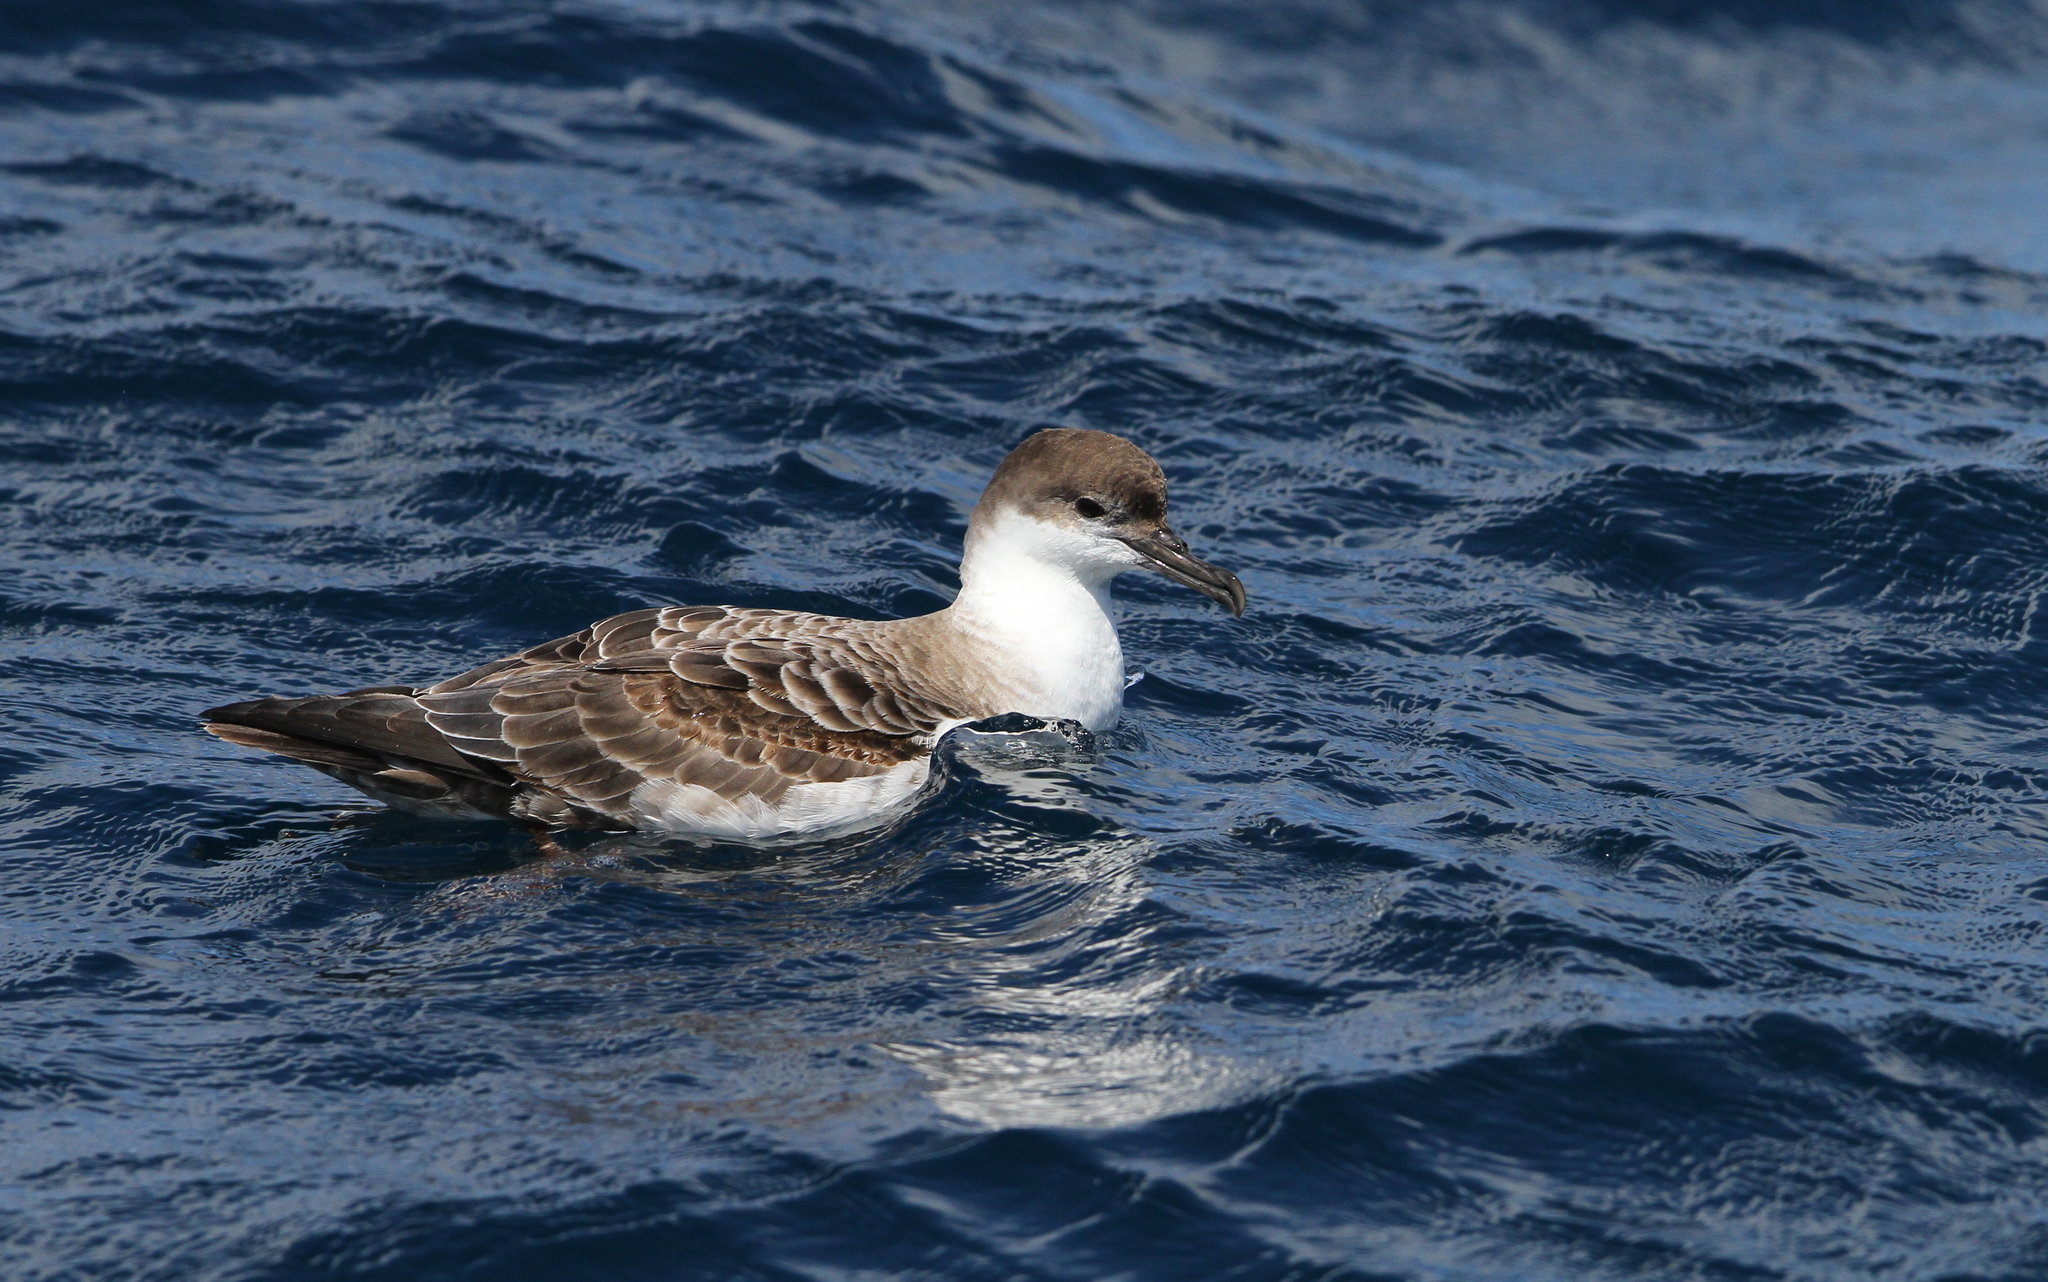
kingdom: Animalia
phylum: Chordata
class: Aves
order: Procellariiformes
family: Procellariidae
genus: Puffinus
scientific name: Puffinus gravis
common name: Great shearwater
